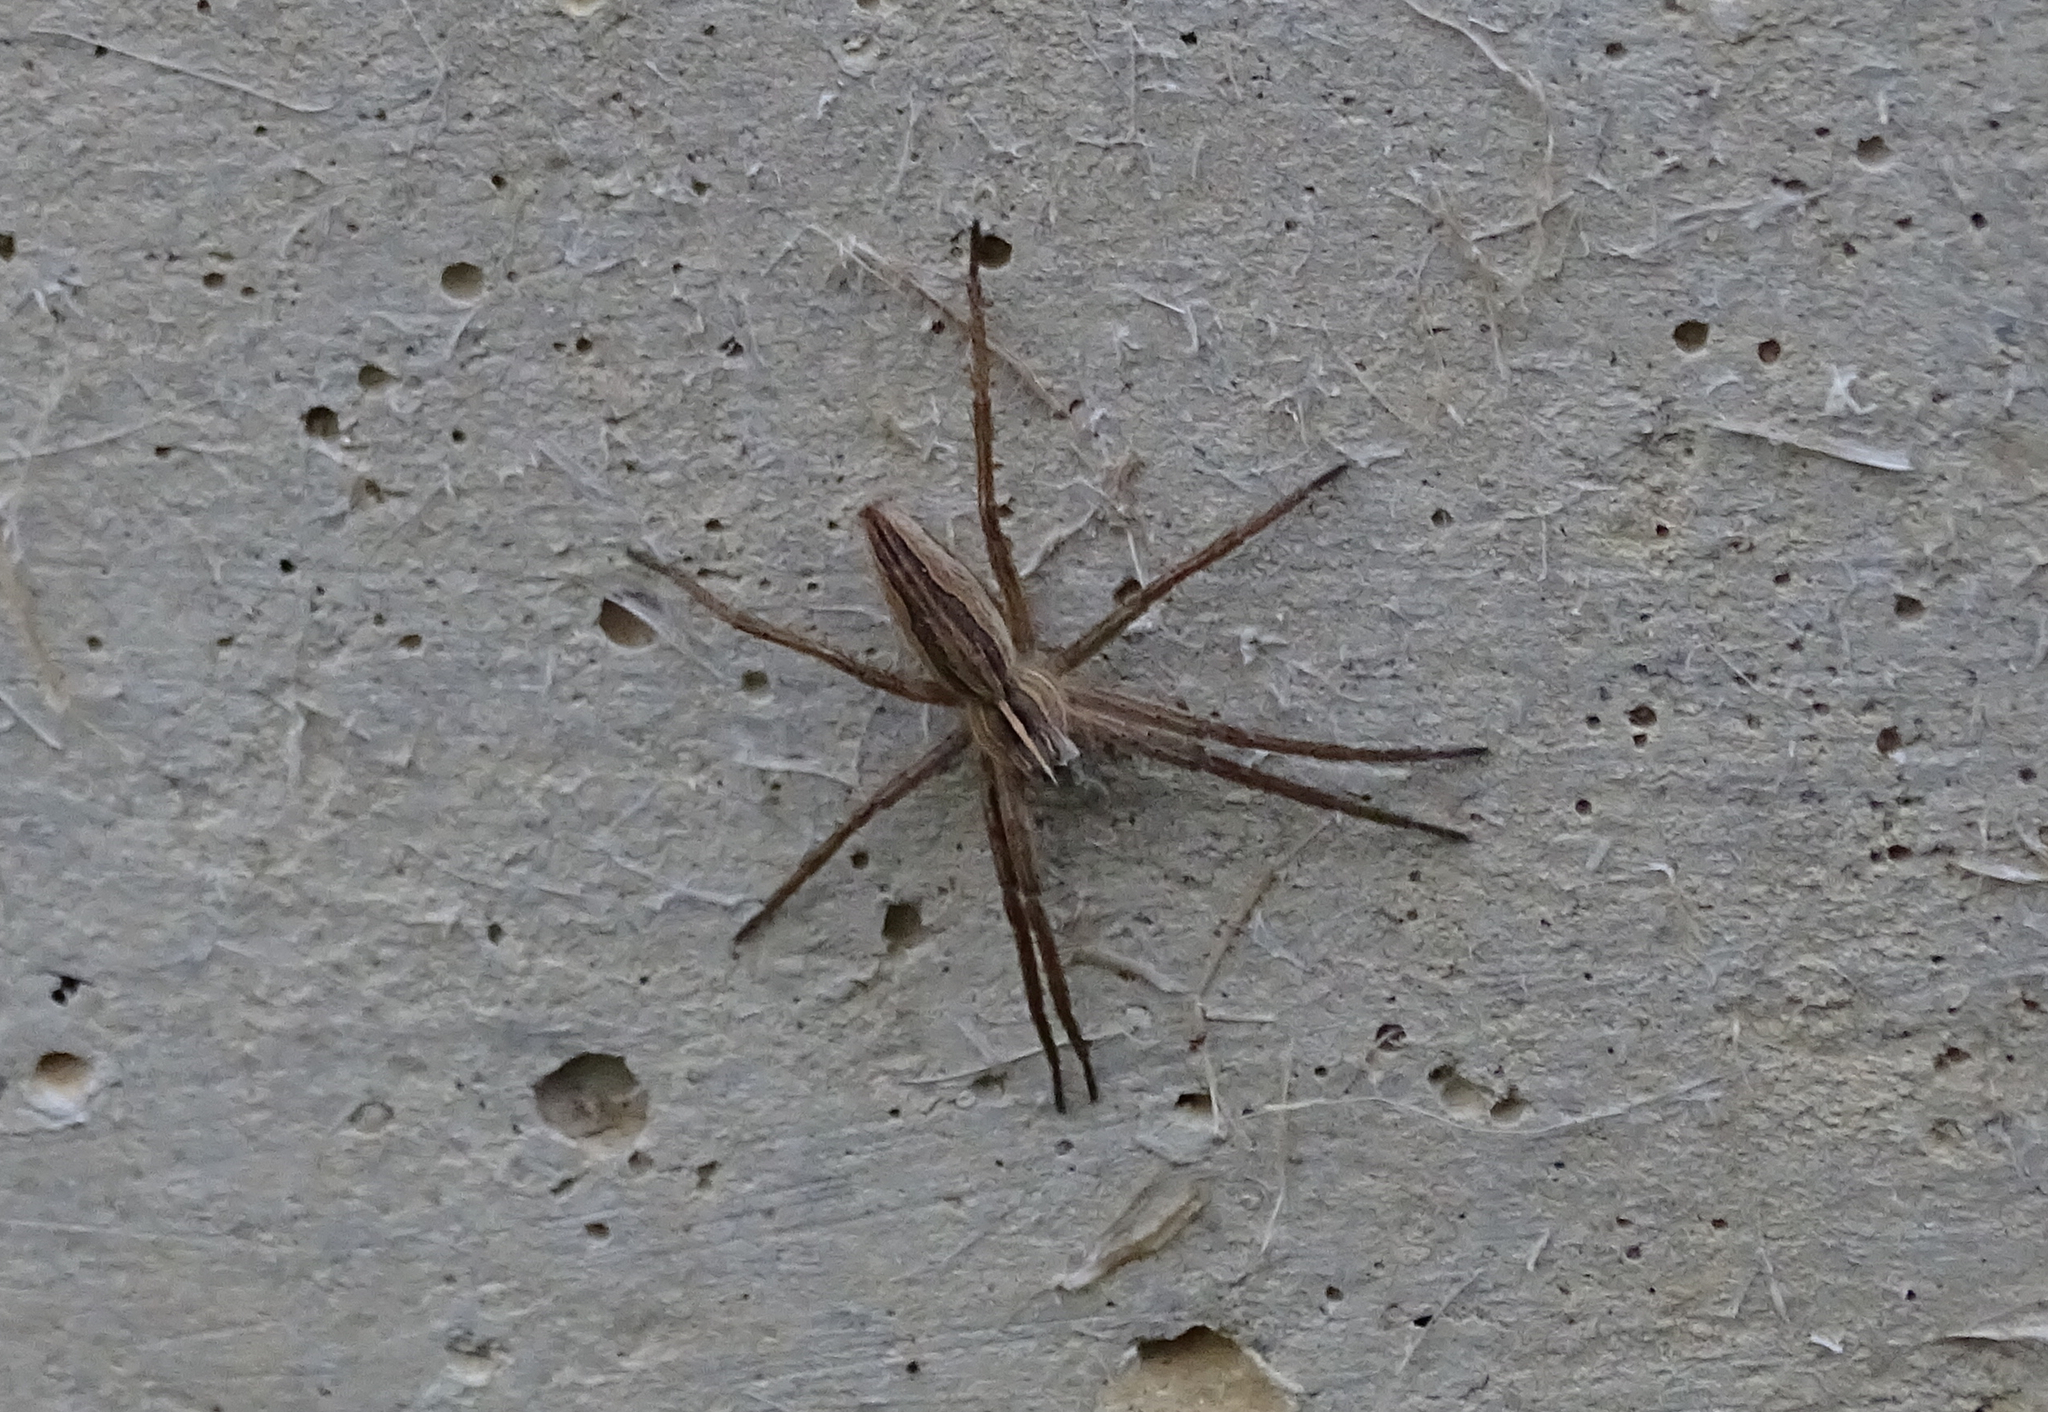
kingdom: Animalia
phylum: Arthropoda
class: Arachnida
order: Araneae
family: Pisauridae
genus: Pisaura
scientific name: Pisaura mirabilis
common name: Tent spider
